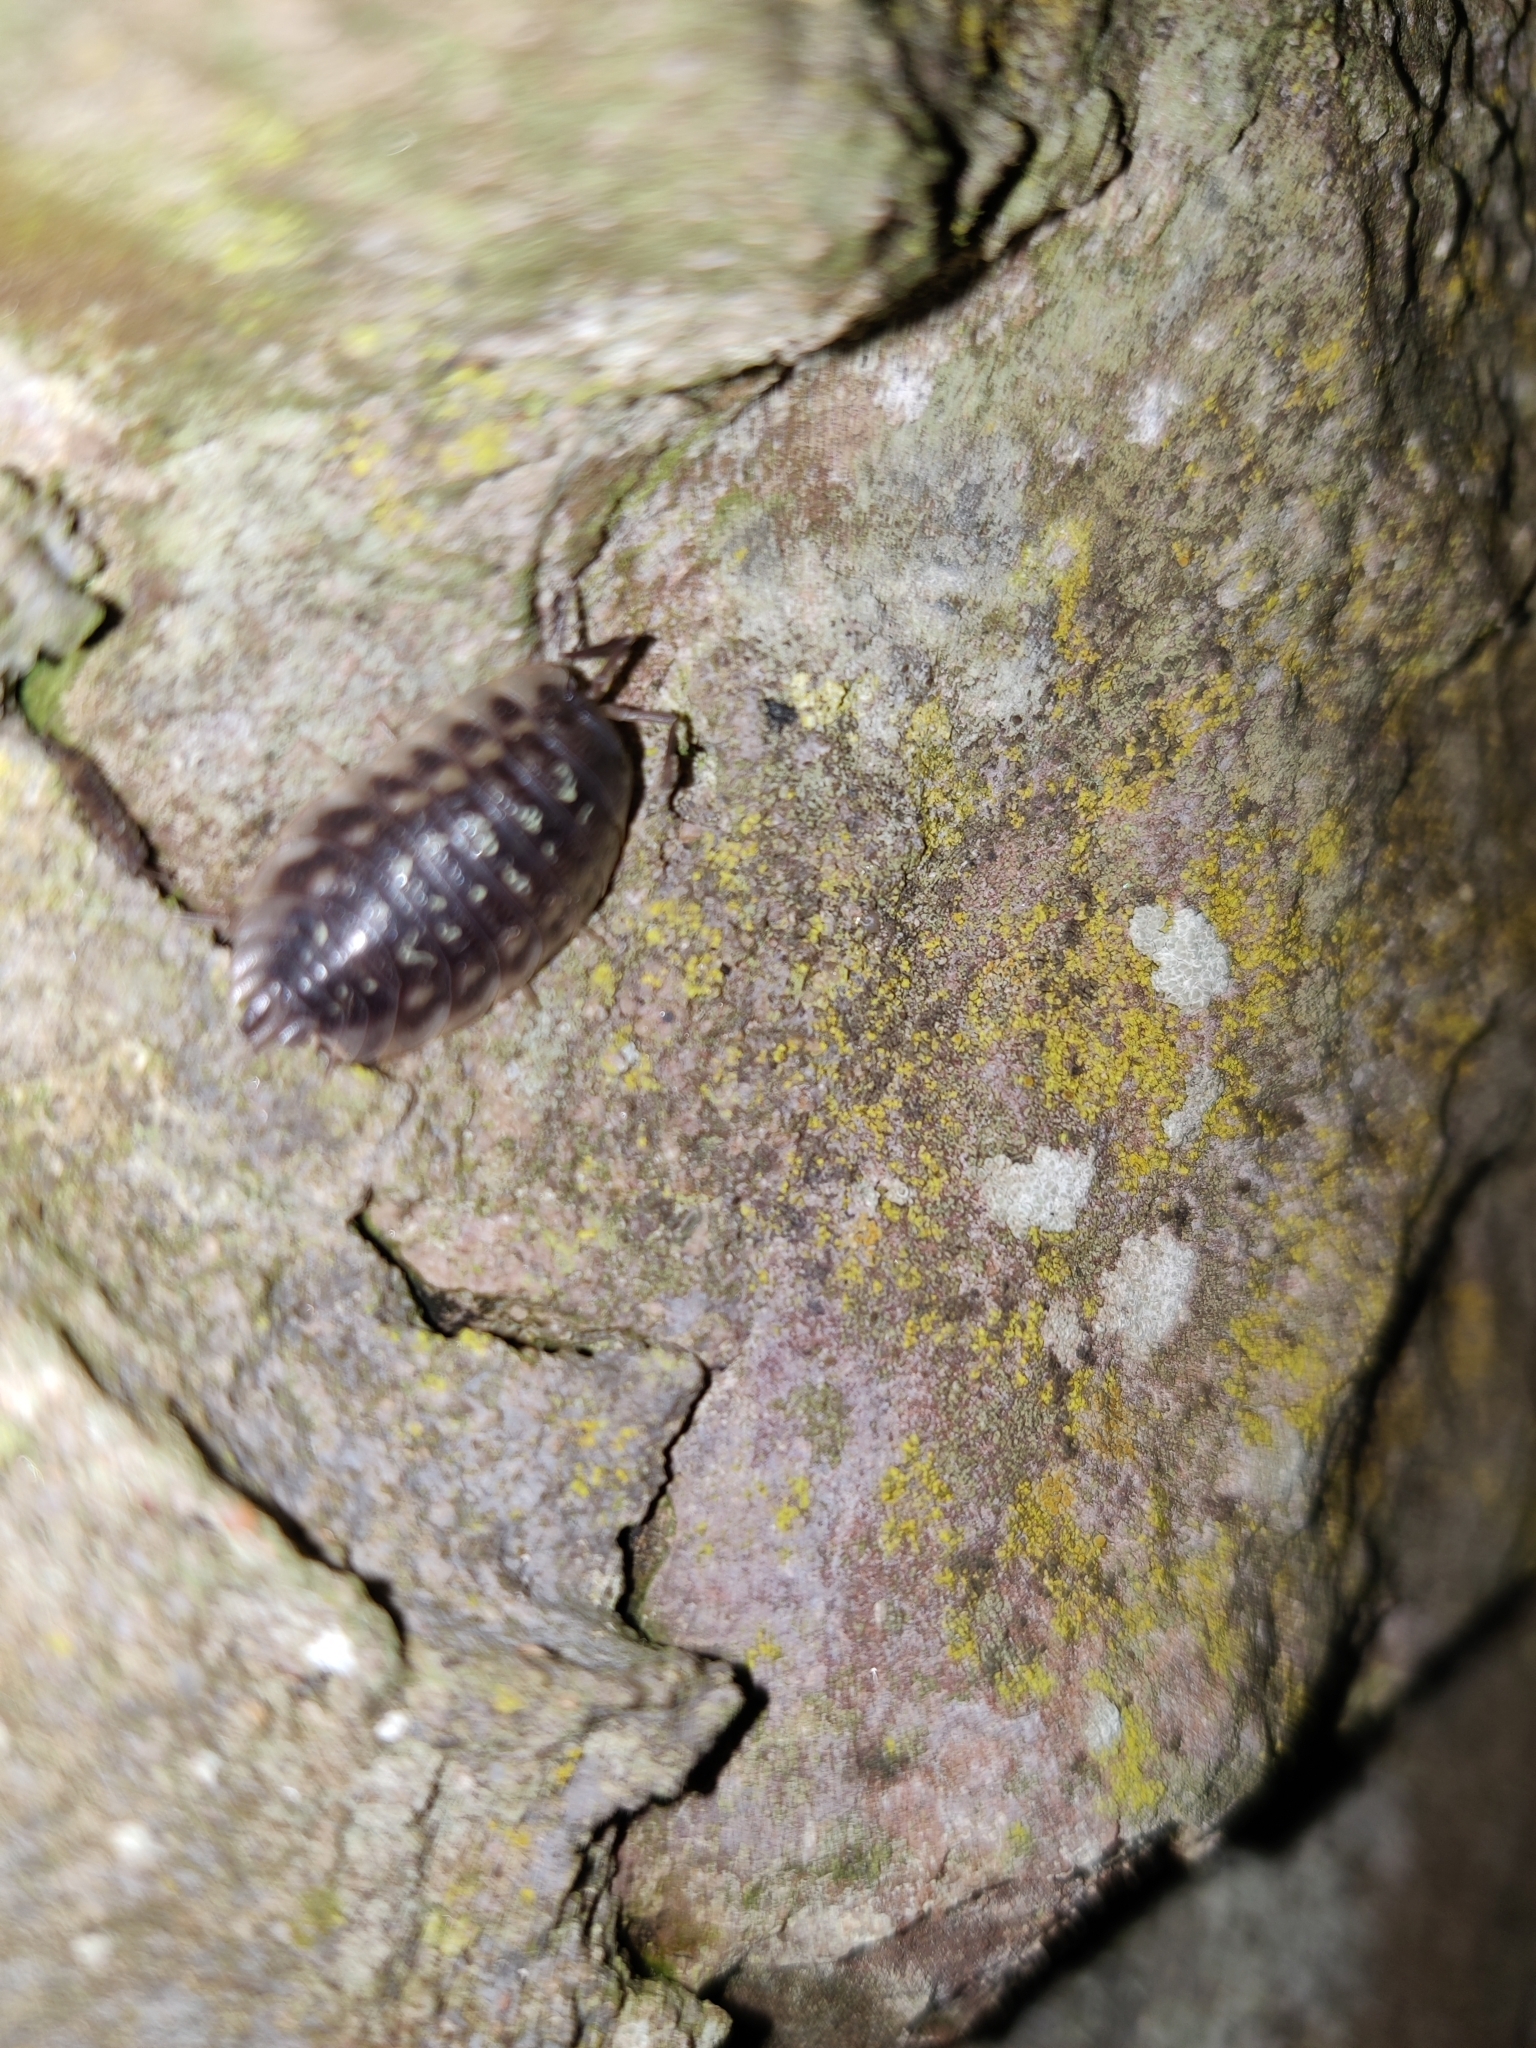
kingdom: Animalia
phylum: Arthropoda
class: Malacostraca
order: Isopoda
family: Oniscidae
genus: Oniscus
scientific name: Oniscus asellus
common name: Common shiny woodlouse
